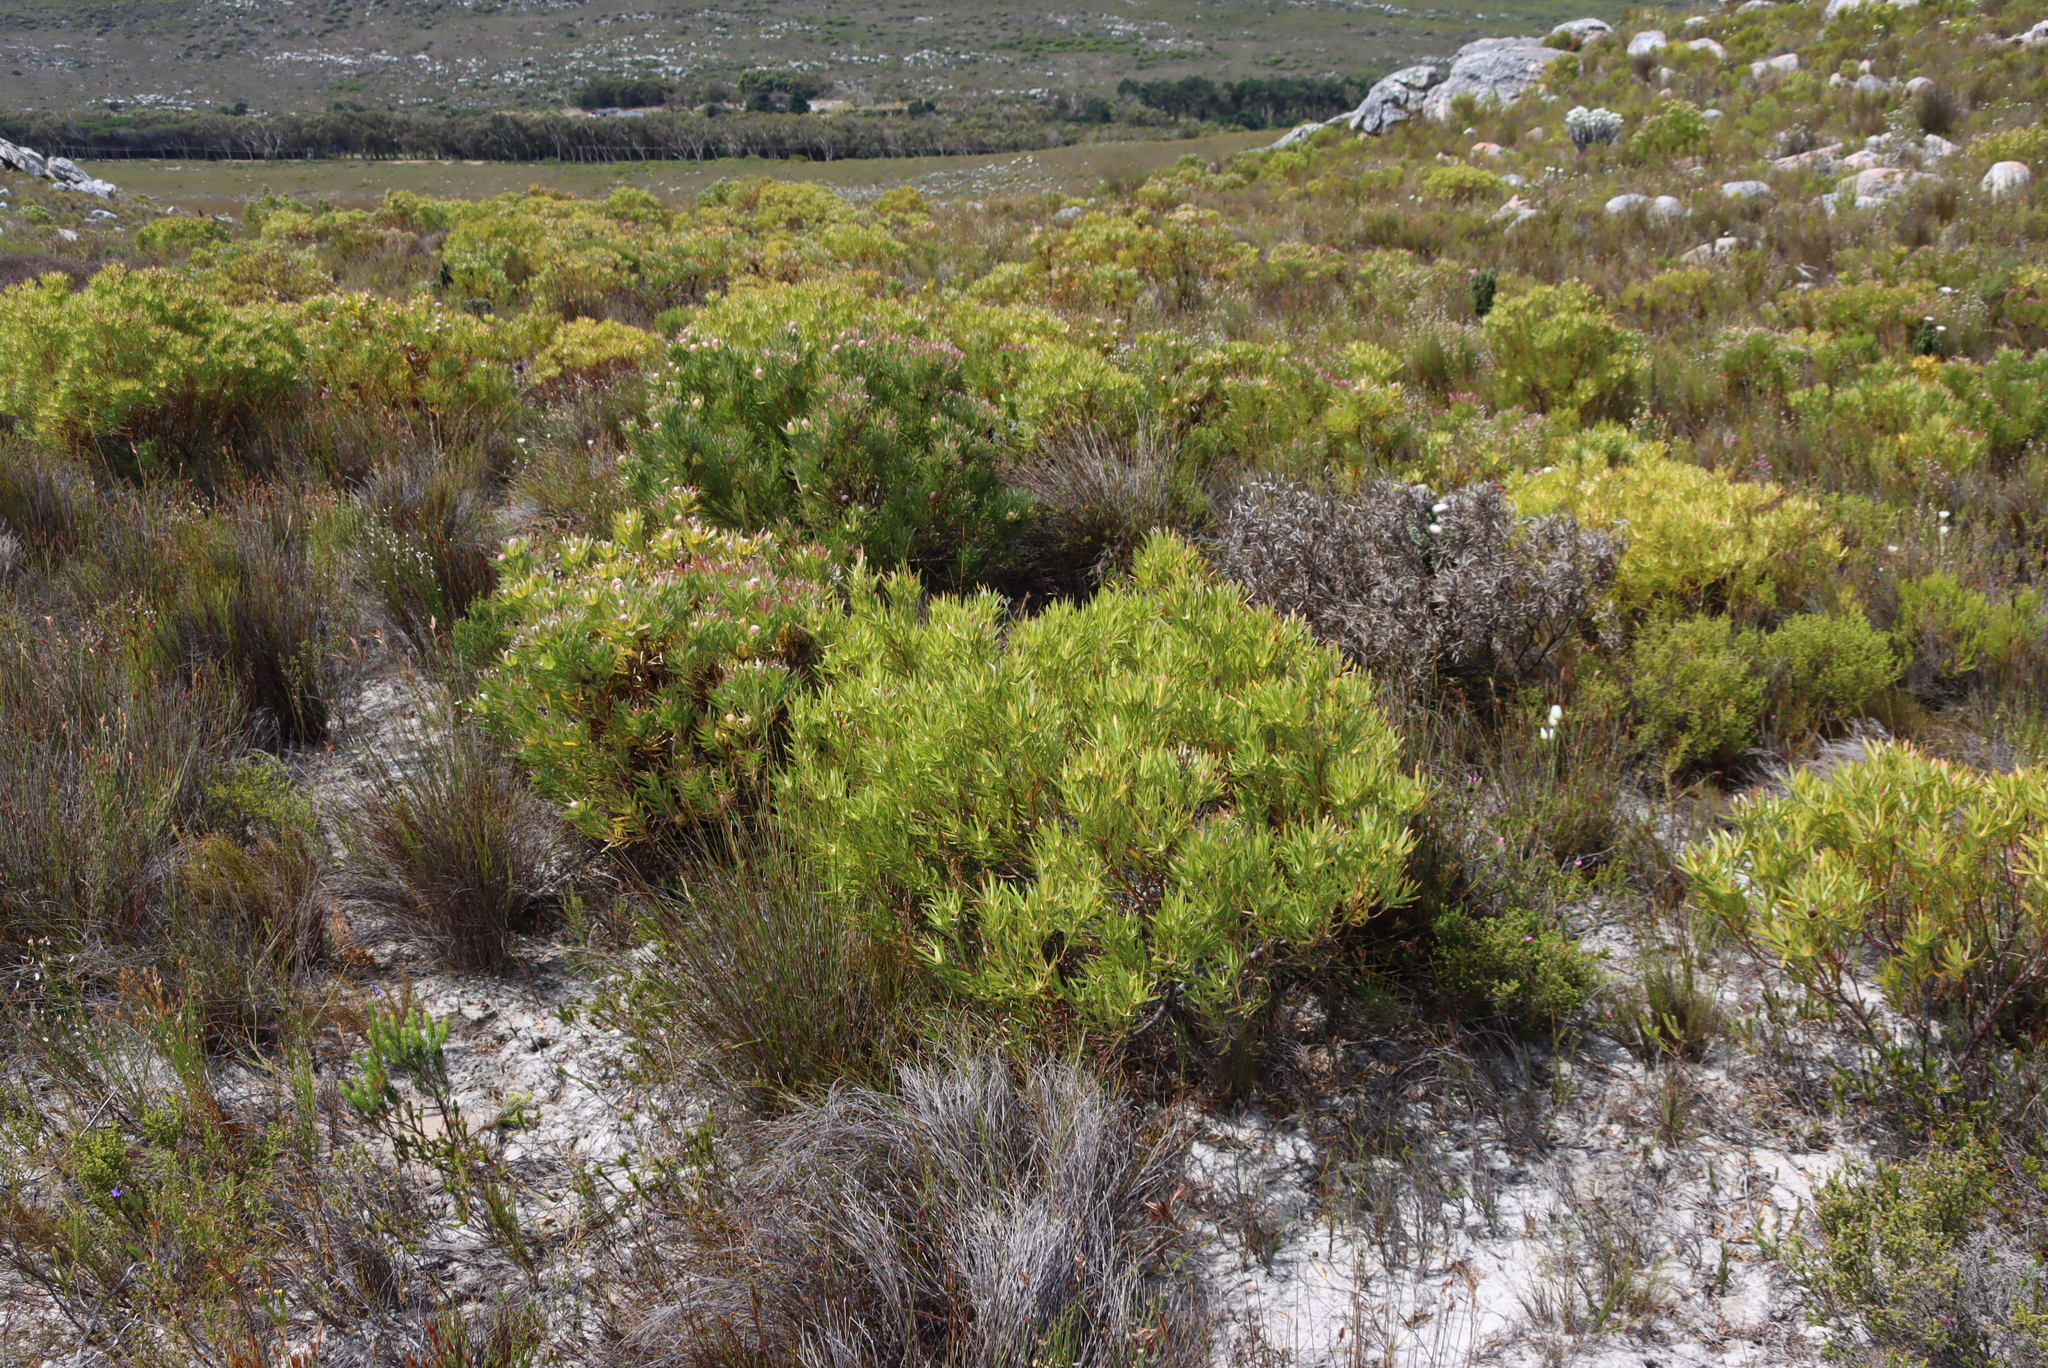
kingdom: Plantae
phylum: Tracheophyta
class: Magnoliopsida
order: Proteales
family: Proteaceae
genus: Leucadendron
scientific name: Leucadendron xanthoconus
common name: Sickle-leaf conebush
